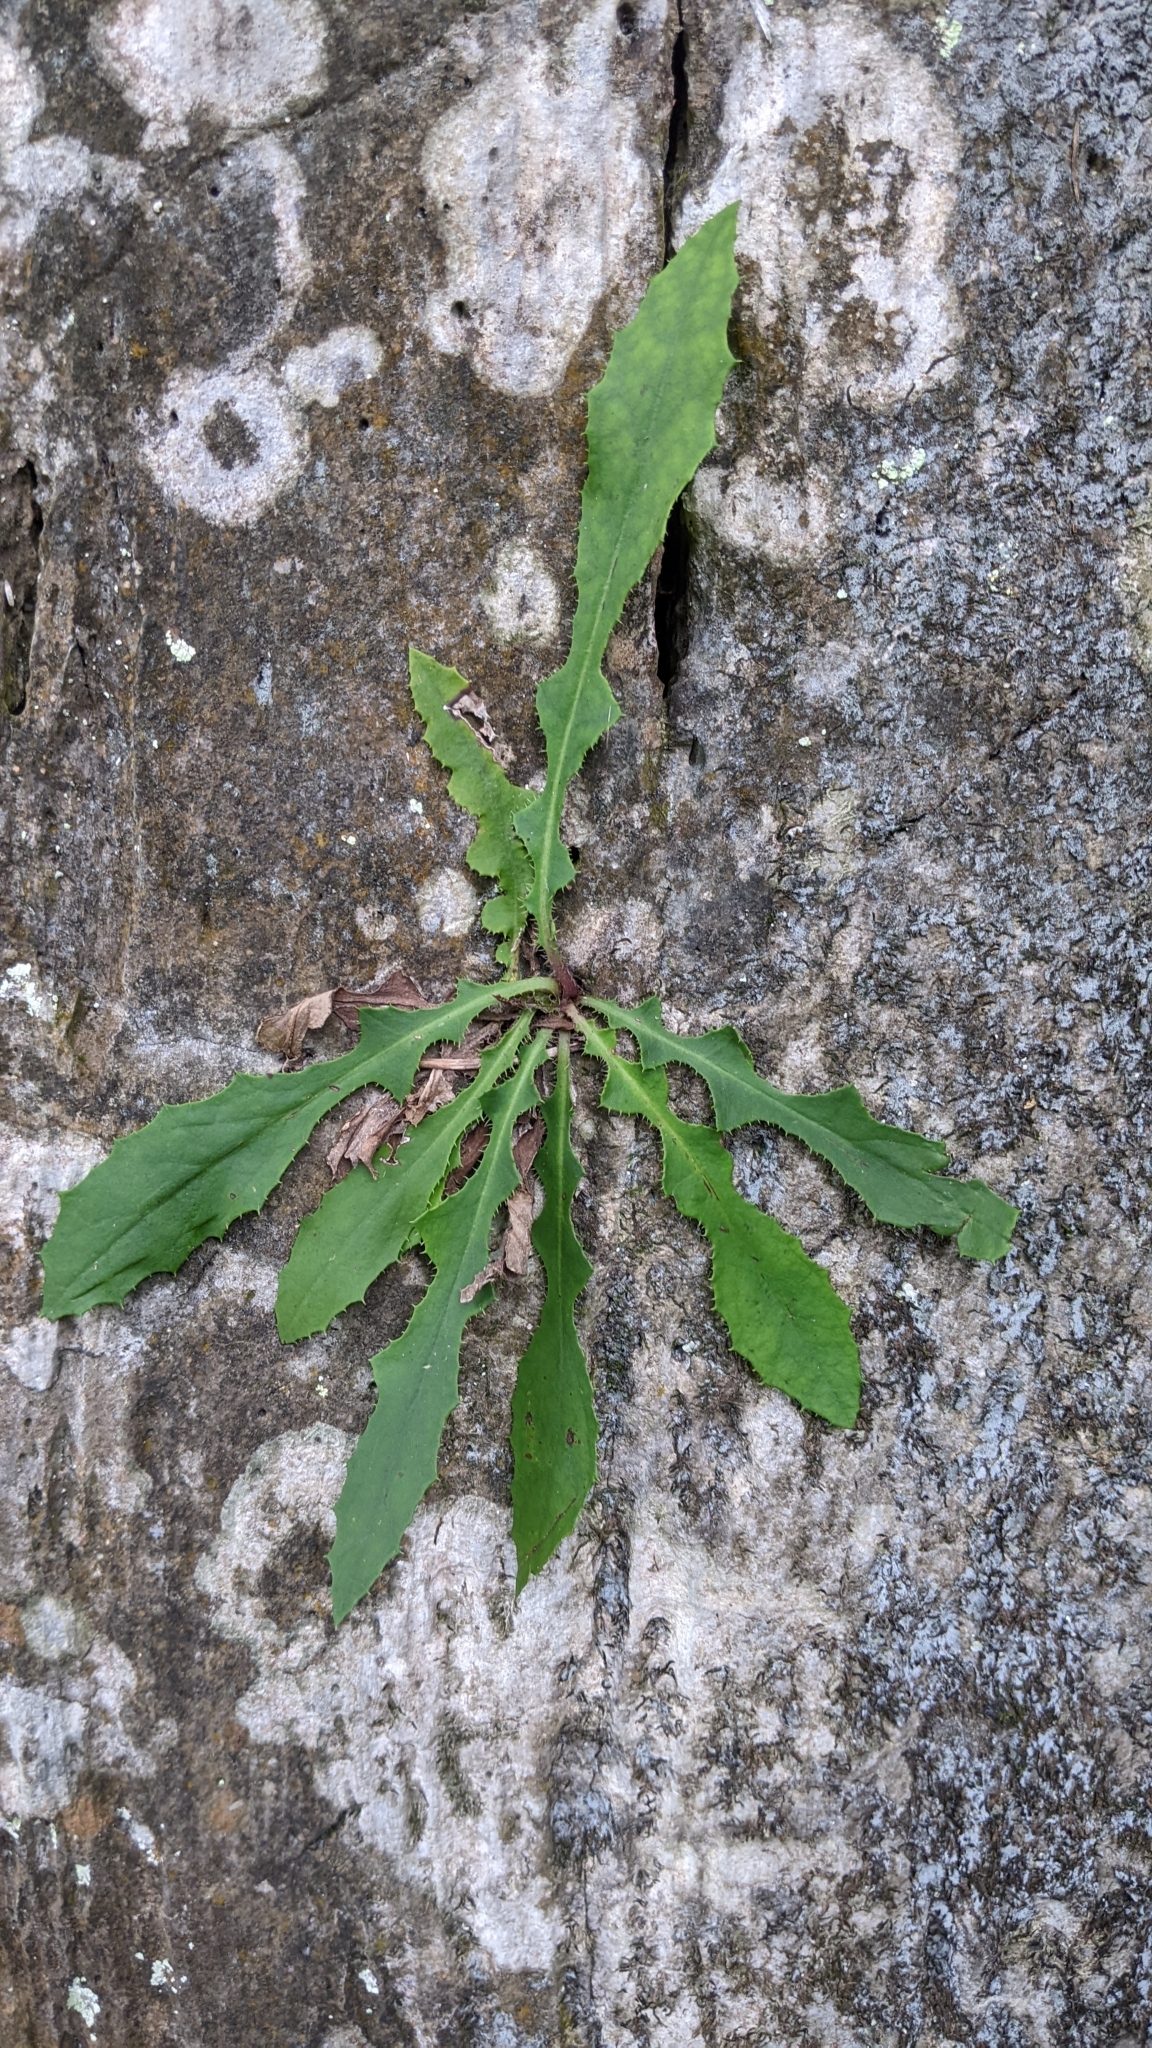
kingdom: Plantae
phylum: Tracheophyta
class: Magnoliopsida
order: Asterales
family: Asteraceae
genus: Ixeridium
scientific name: Ixeridium laevigatum
